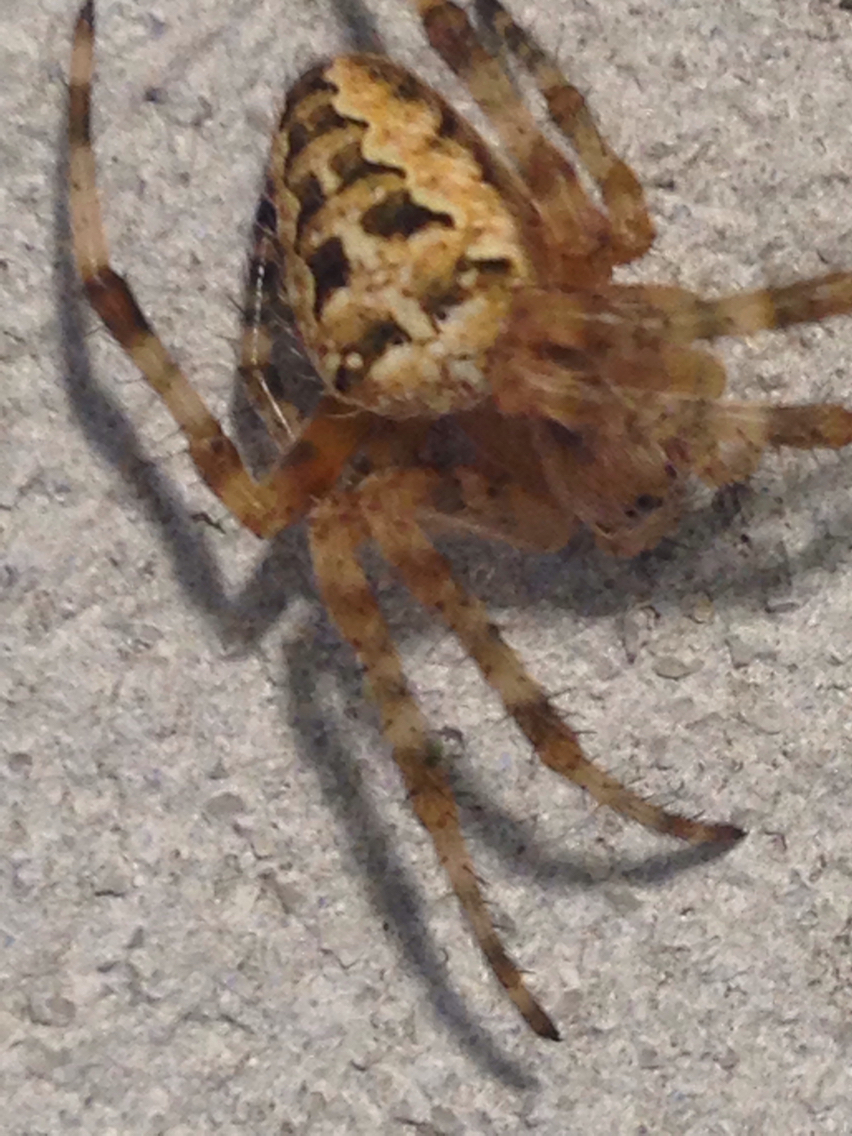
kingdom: Animalia
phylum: Arthropoda
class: Arachnida
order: Araneae
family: Araneidae
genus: Araneus
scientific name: Araneus diadematus
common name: Cross orbweaver
